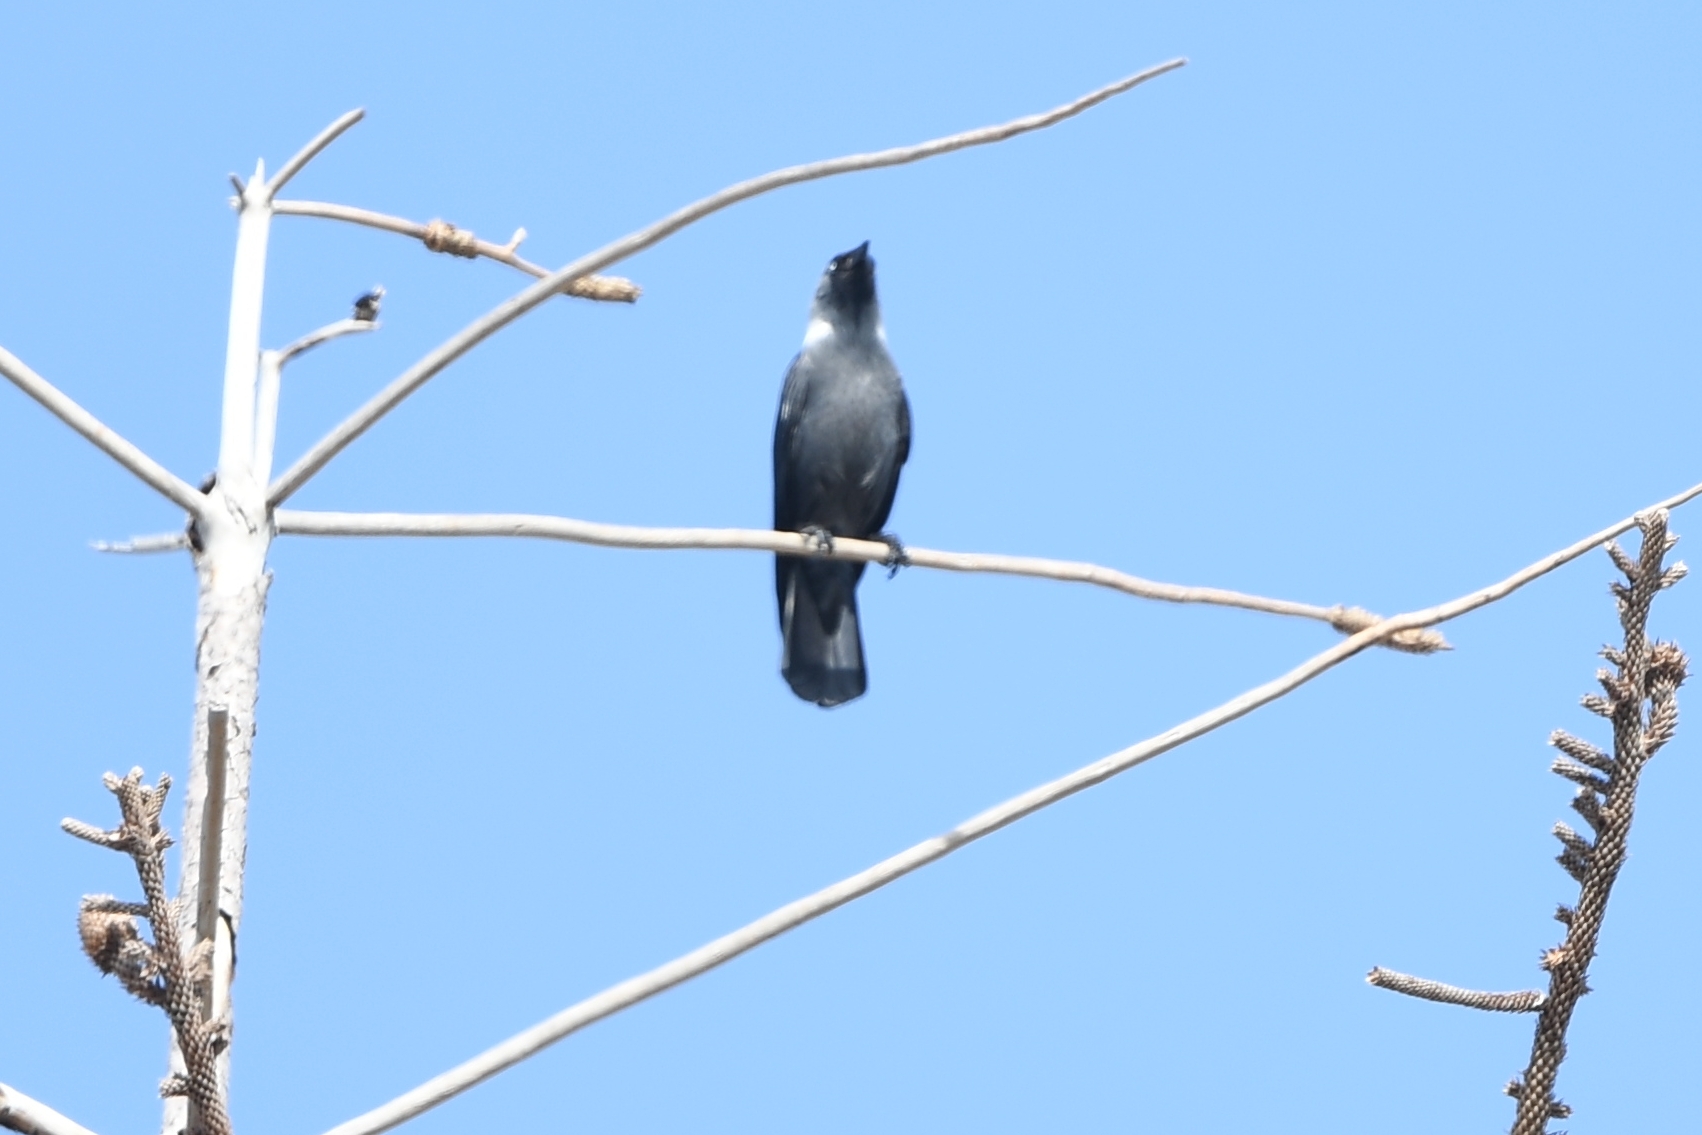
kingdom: Animalia
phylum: Chordata
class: Aves
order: Passeriformes
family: Corvidae
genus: Coloeus
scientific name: Coloeus monedula
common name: Western jackdaw
